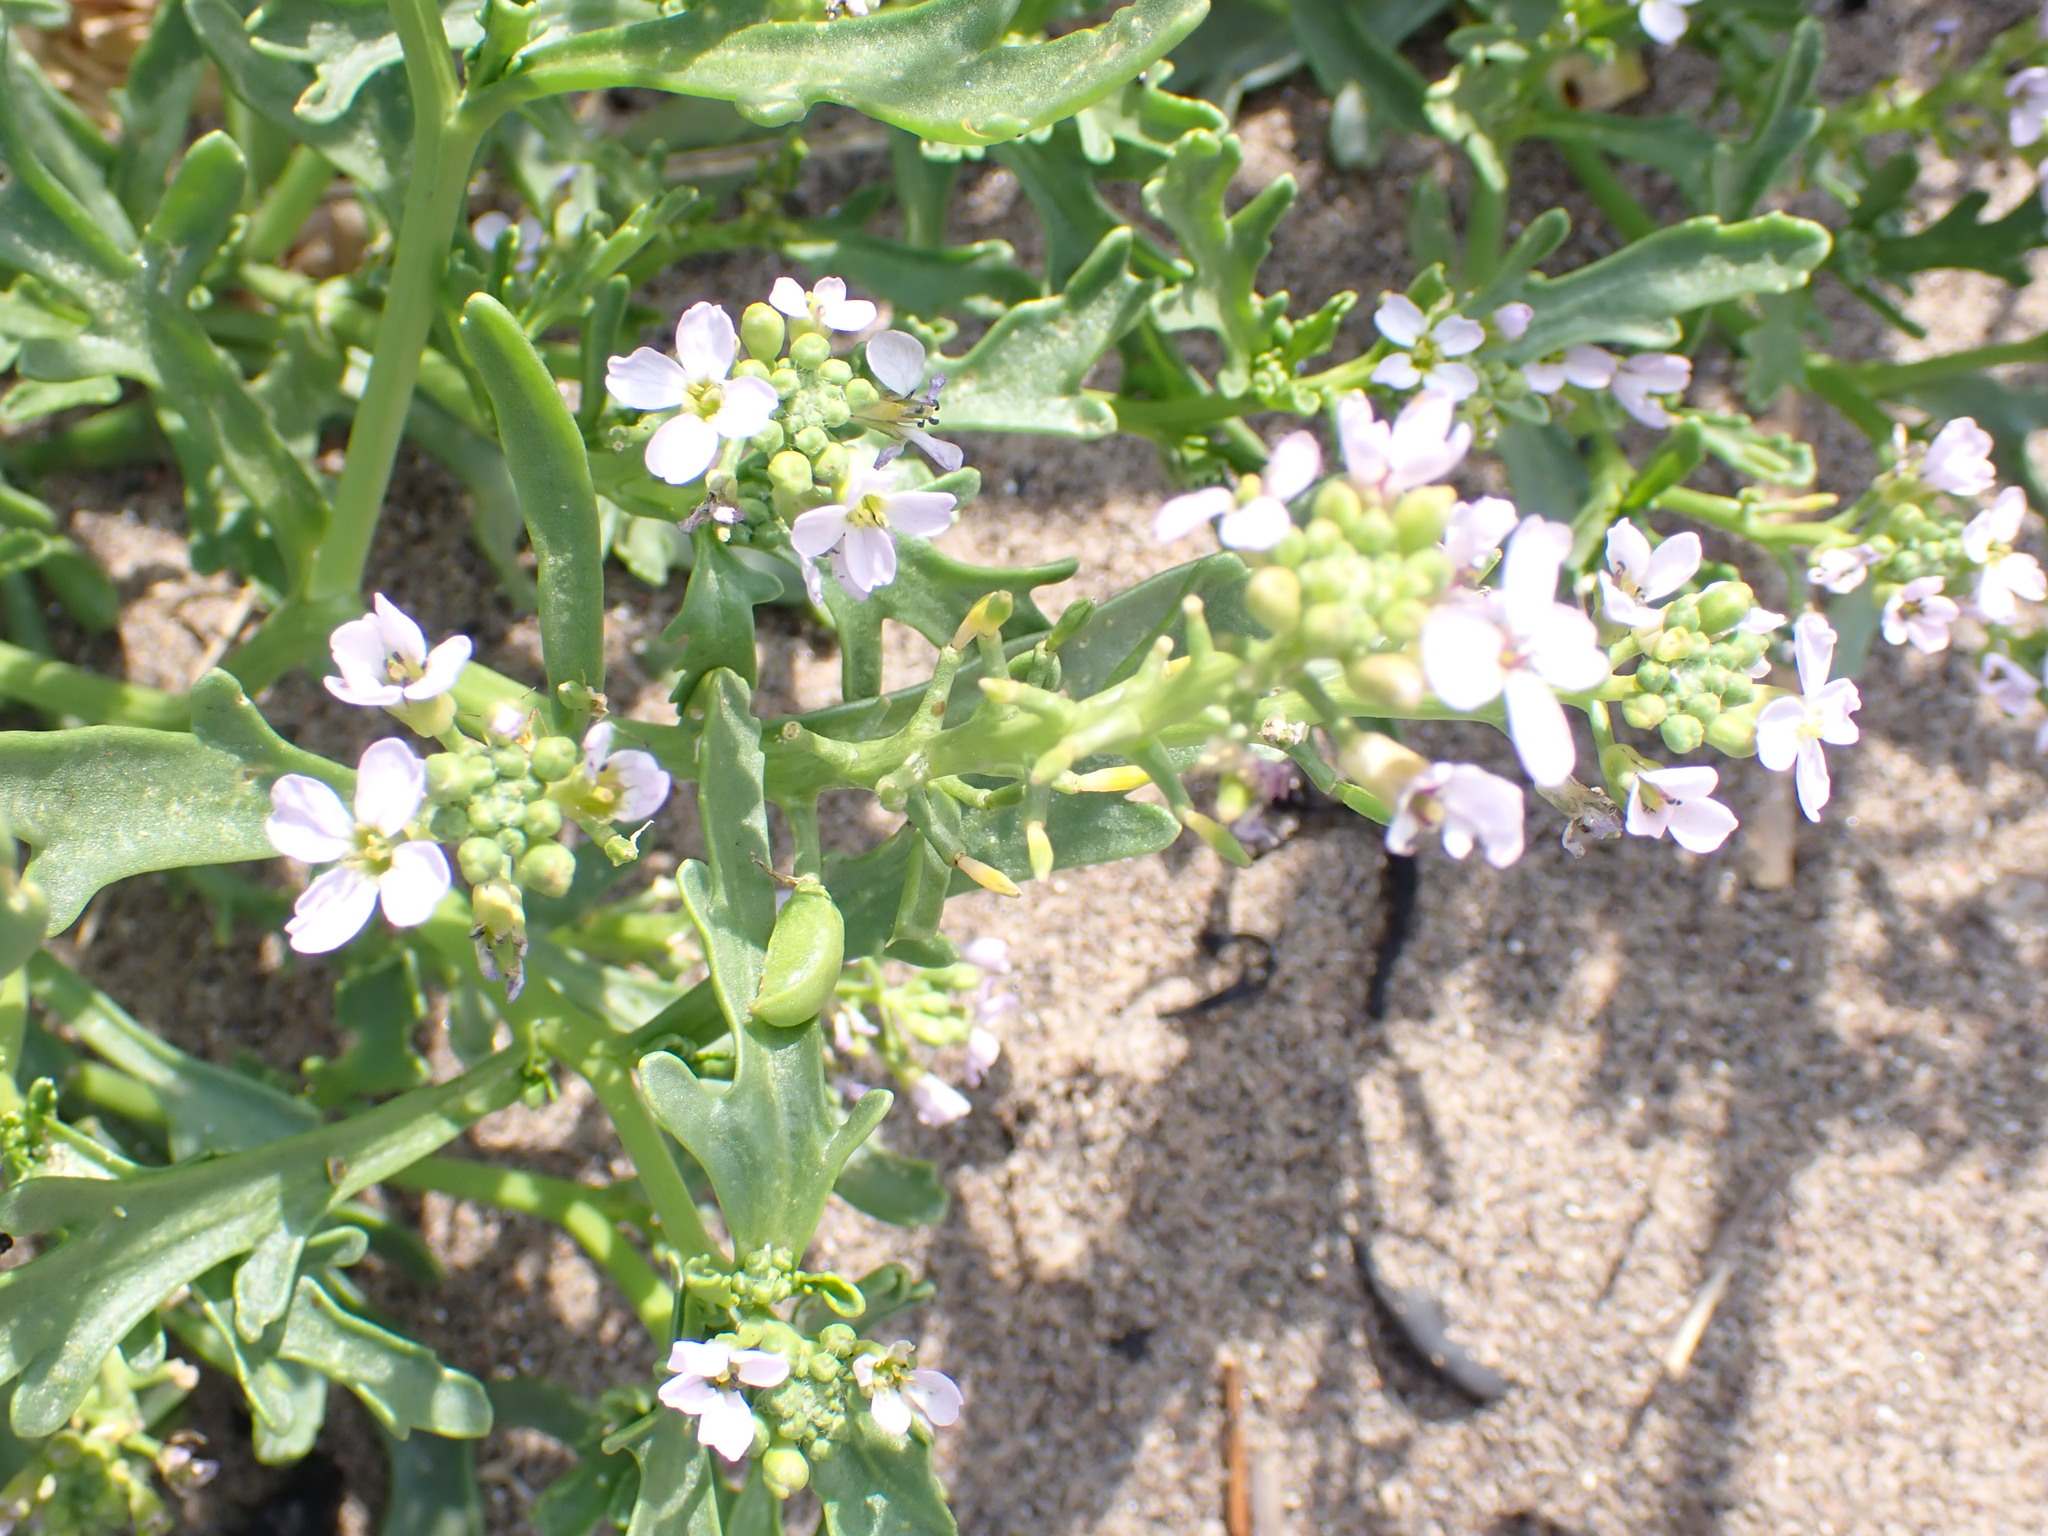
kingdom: Plantae
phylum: Tracheophyta
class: Magnoliopsida
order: Brassicales
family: Brassicaceae
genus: Cakile
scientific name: Cakile maritima
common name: Sea rocket
